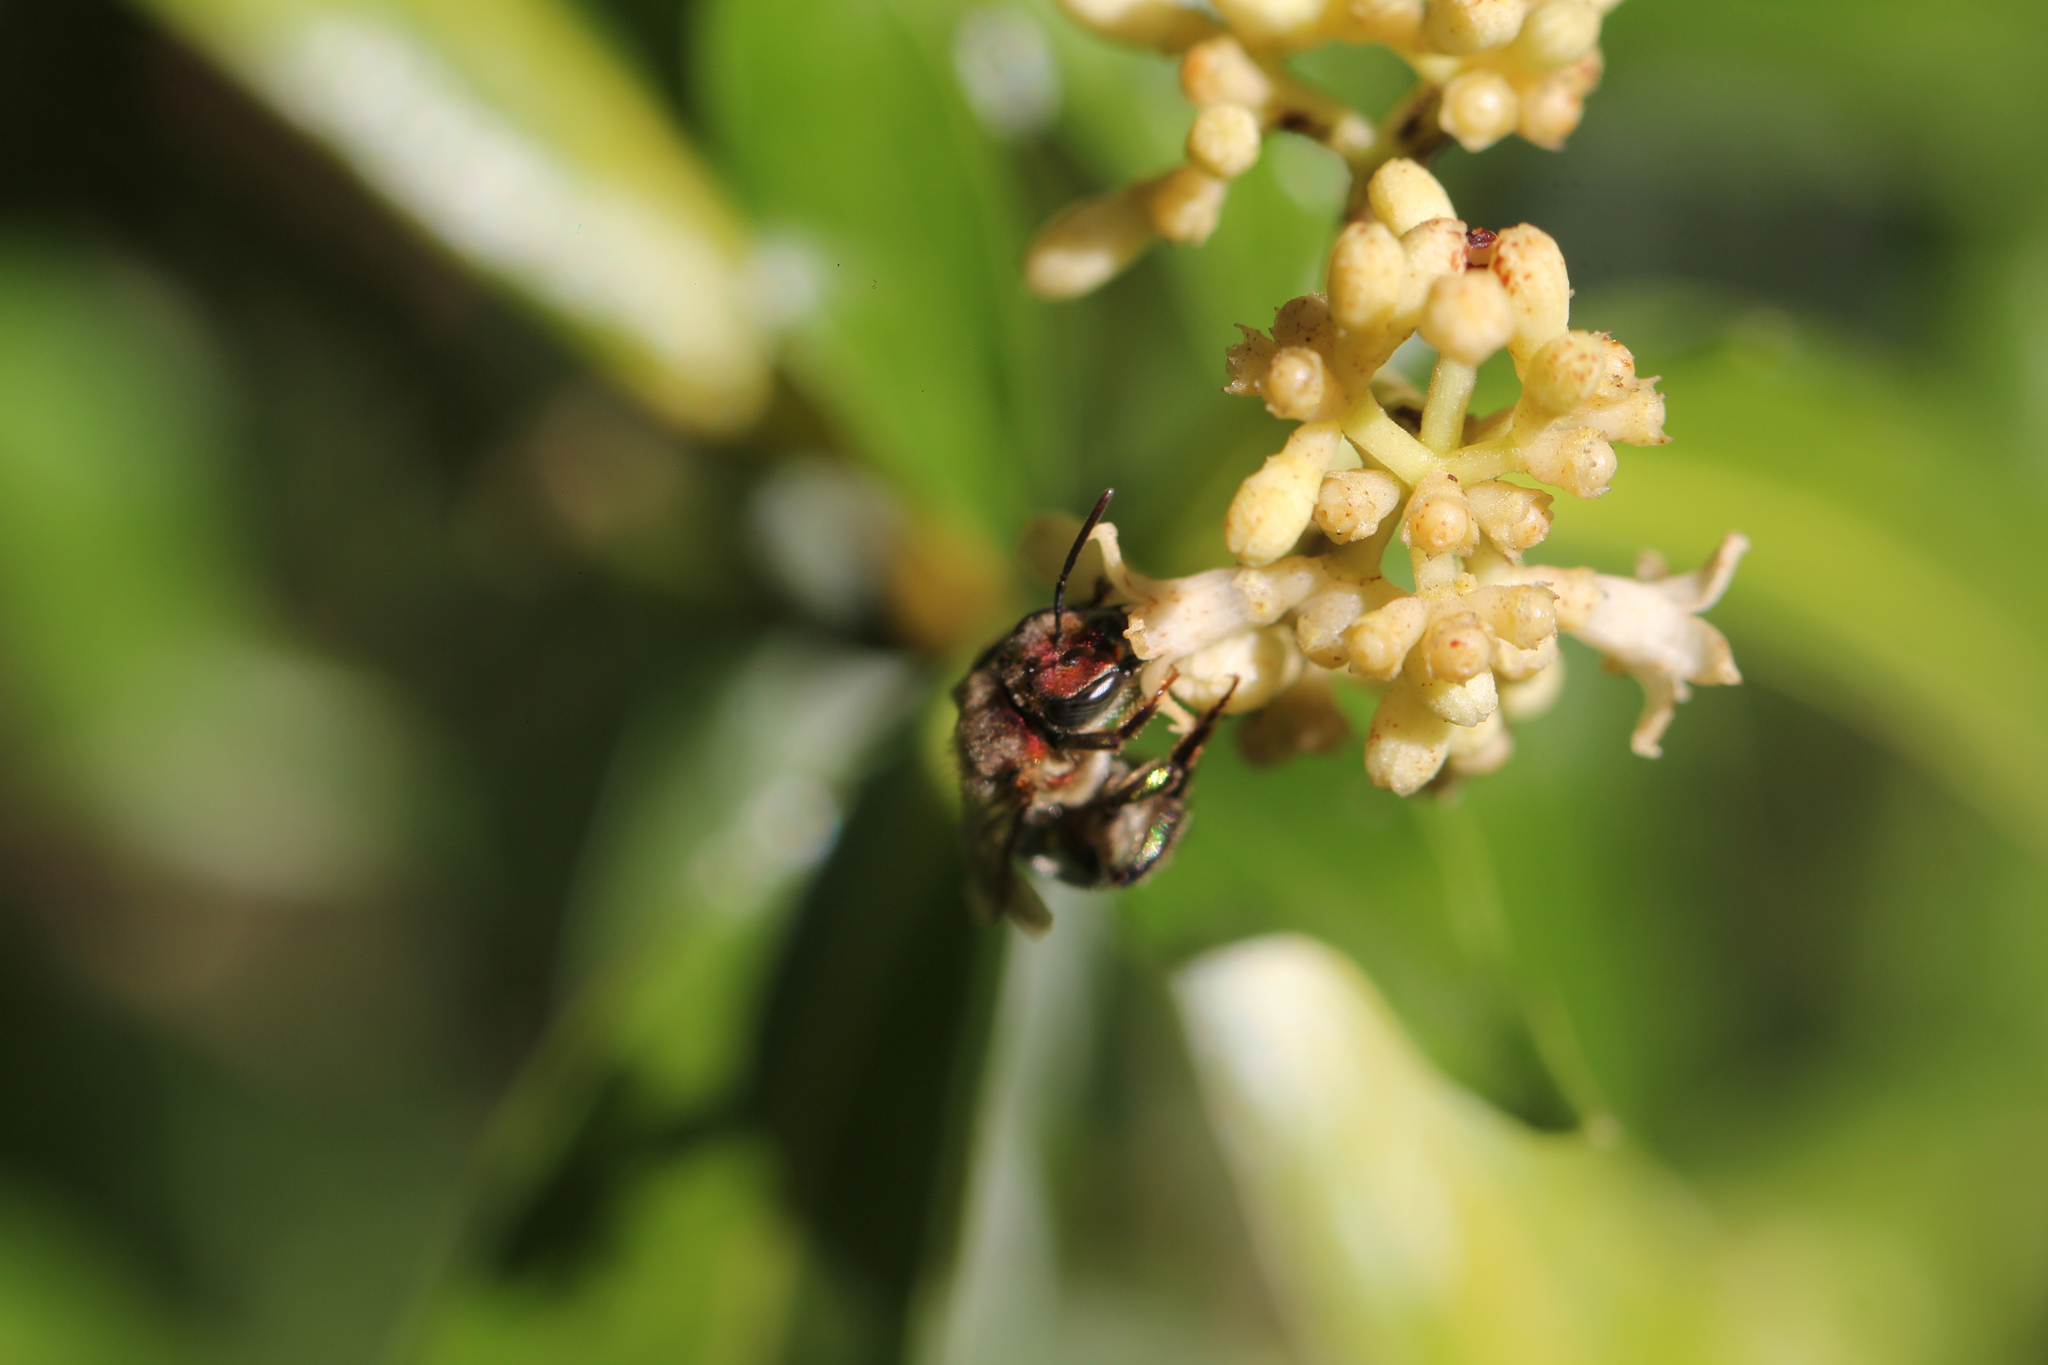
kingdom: Animalia
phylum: Arthropoda
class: Insecta
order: Hymenoptera
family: Halictidae
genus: Augochloropsis
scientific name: Augochloropsis tupacamaru
